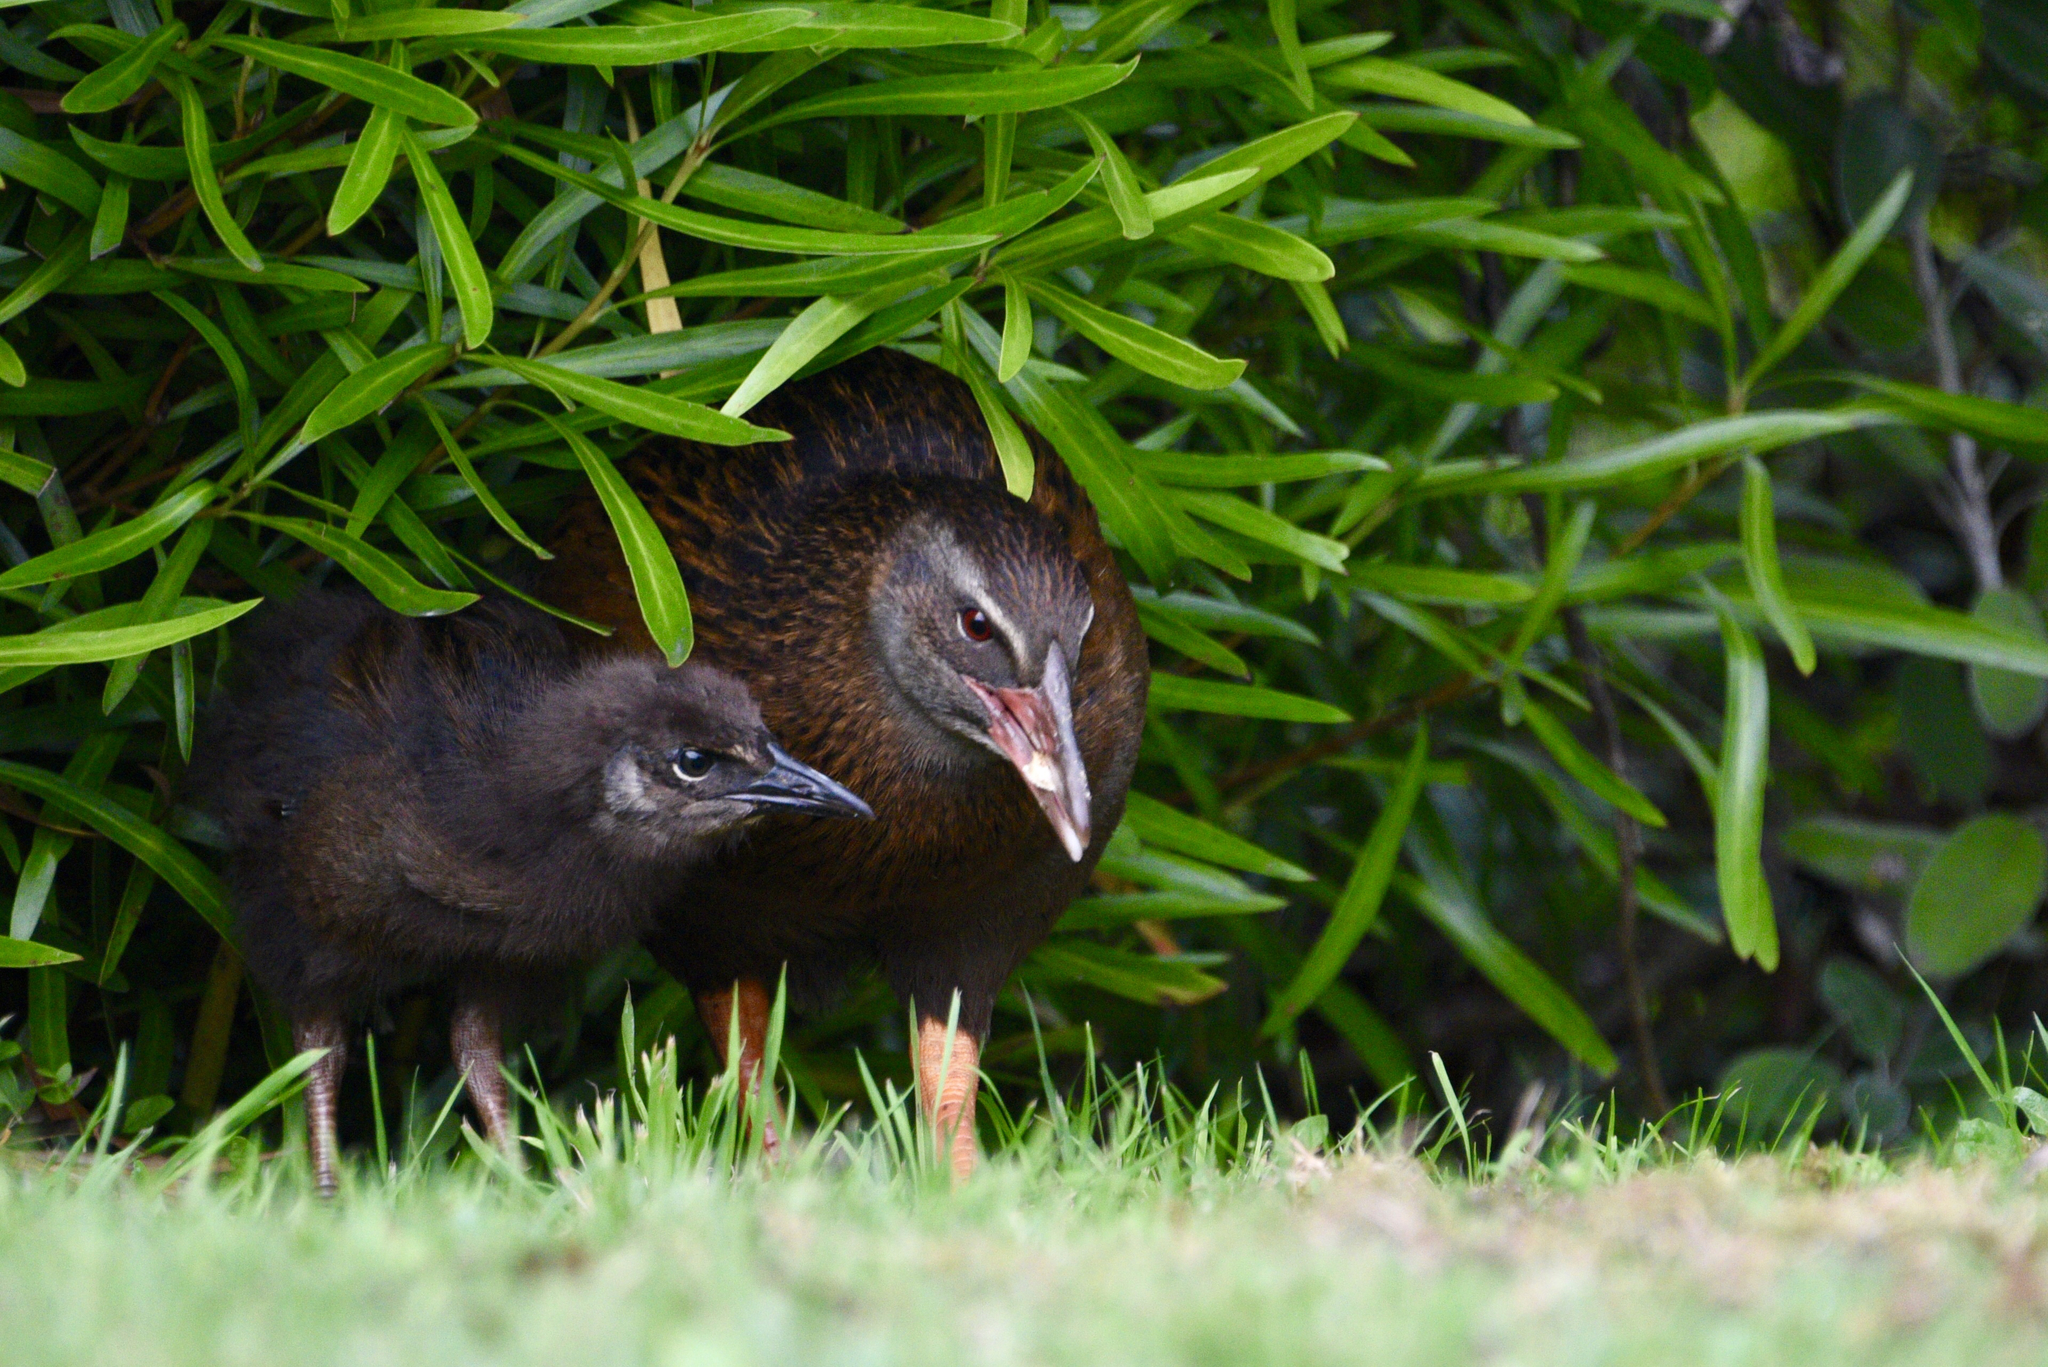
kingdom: Animalia
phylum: Chordata
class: Aves
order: Gruiformes
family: Rallidae
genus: Gallirallus
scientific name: Gallirallus australis
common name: Weka
